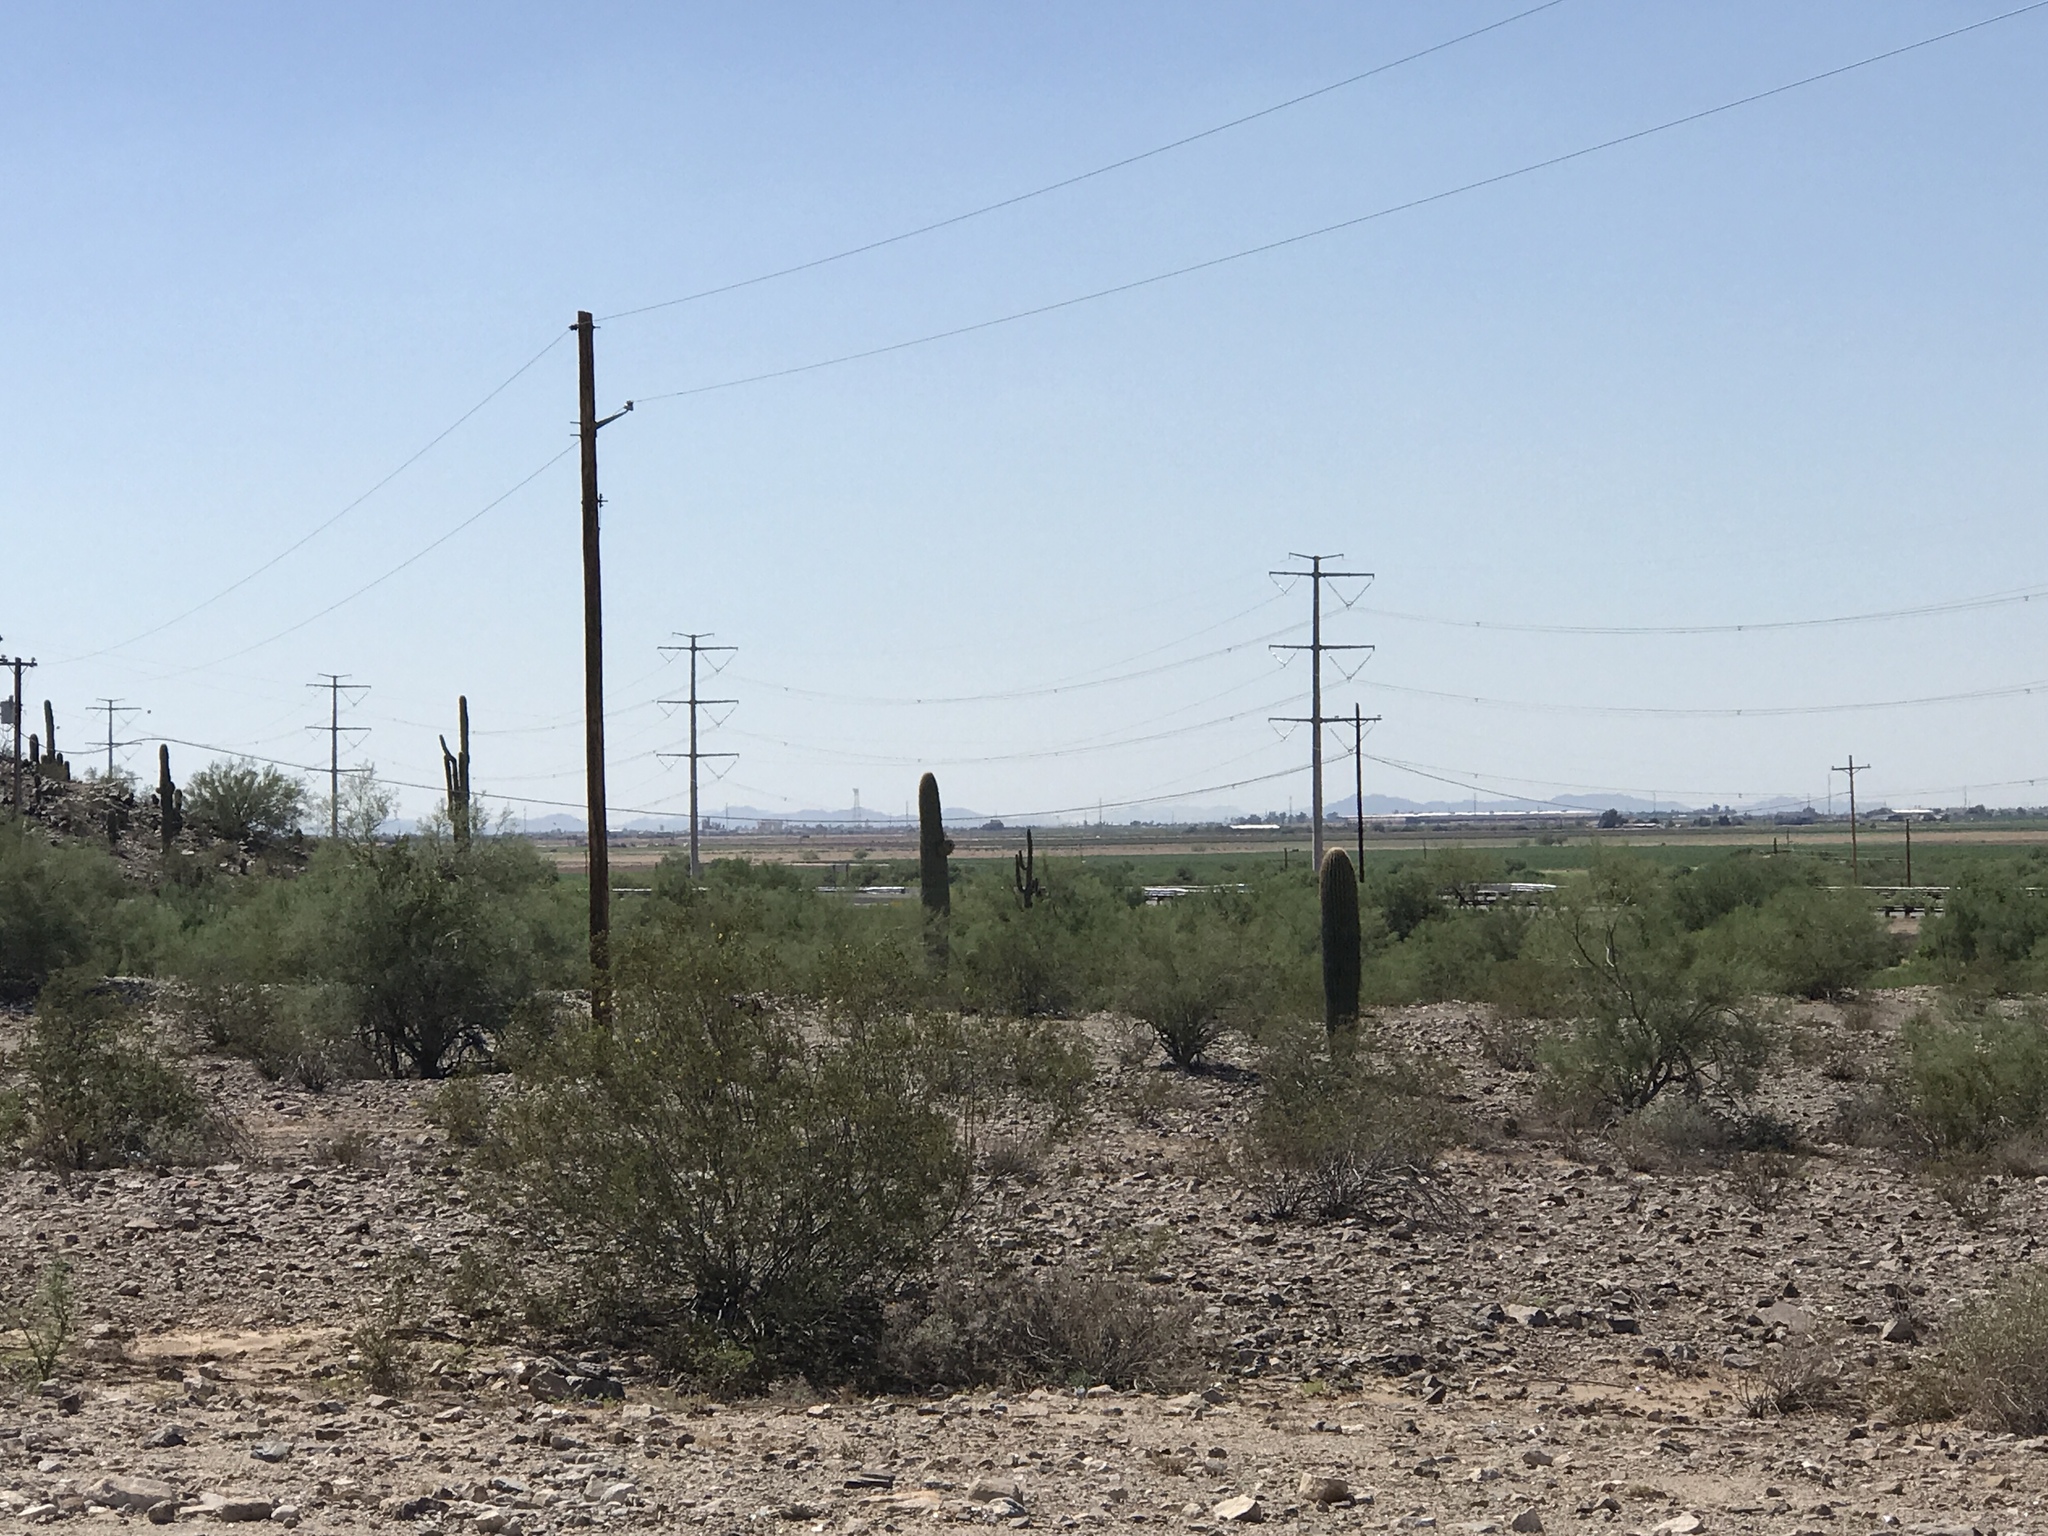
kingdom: Plantae
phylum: Tracheophyta
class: Magnoliopsida
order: Zygophyllales
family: Zygophyllaceae
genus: Larrea
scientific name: Larrea tridentata
